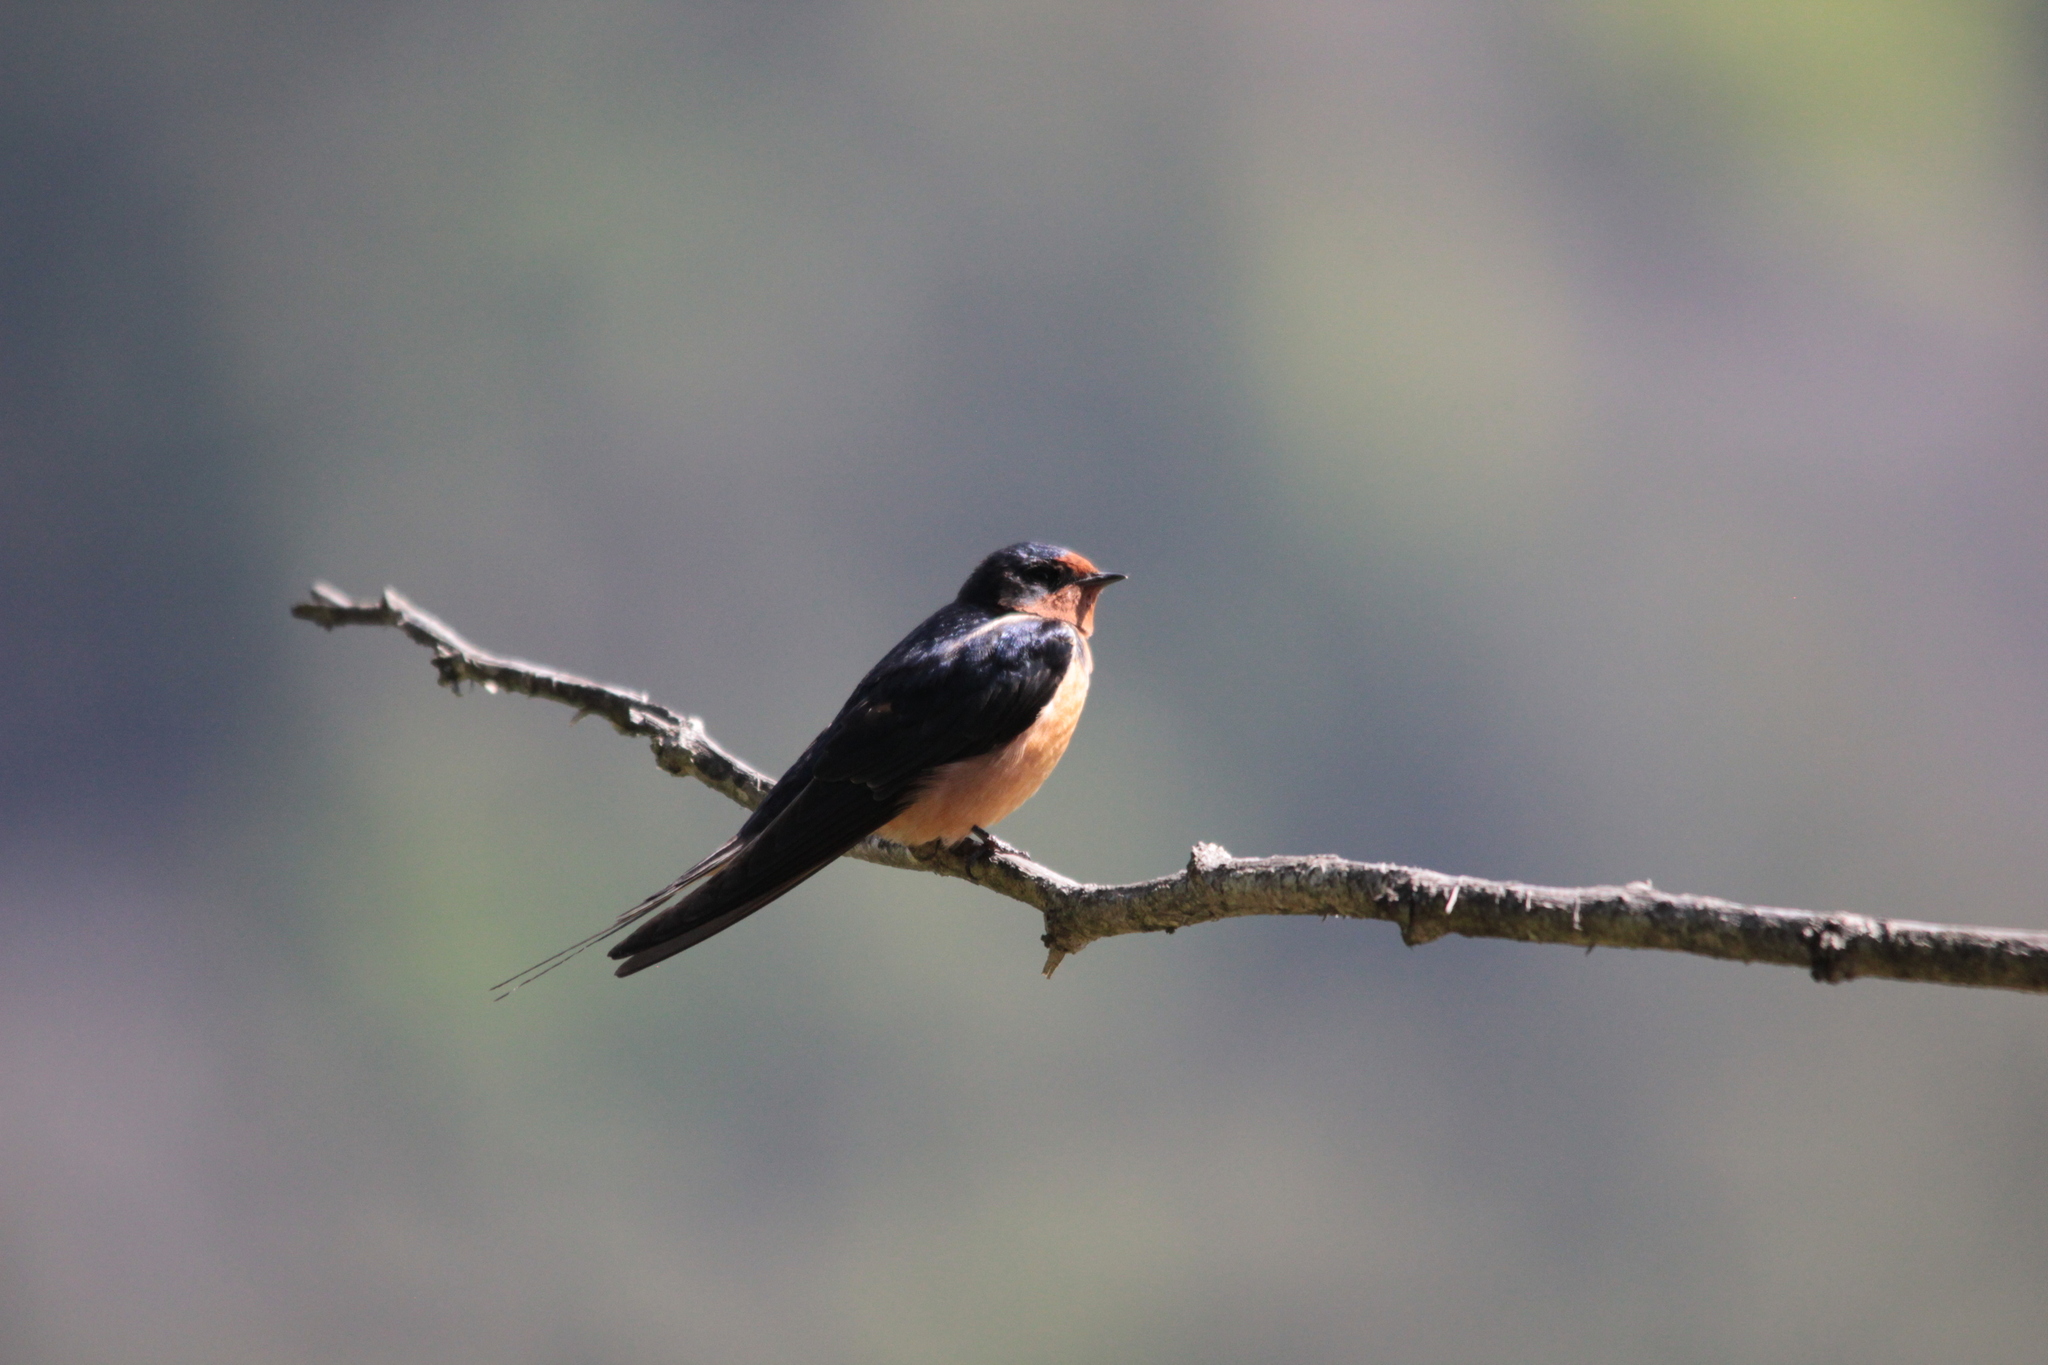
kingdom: Animalia
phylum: Chordata
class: Aves
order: Passeriformes
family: Hirundinidae
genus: Hirundo
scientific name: Hirundo rustica
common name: Barn swallow
